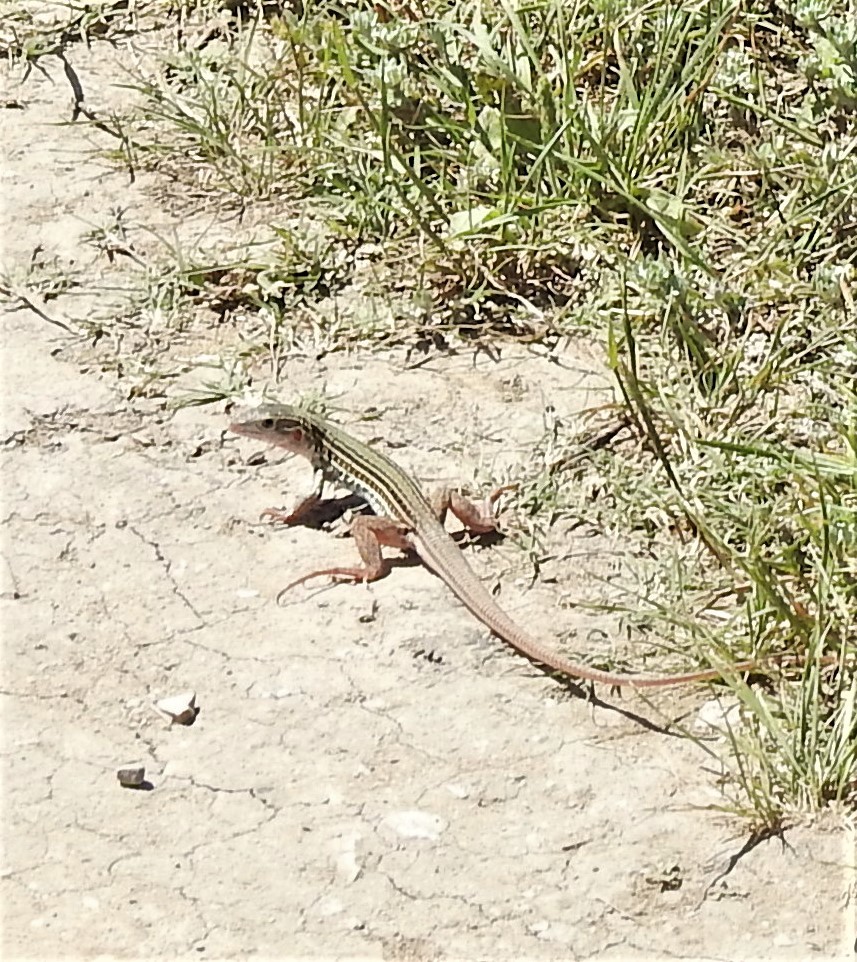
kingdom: Animalia
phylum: Chordata
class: Squamata
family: Teiidae
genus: Aspidoscelis
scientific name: Aspidoscelis gularis
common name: Eastern spotted whiptail
